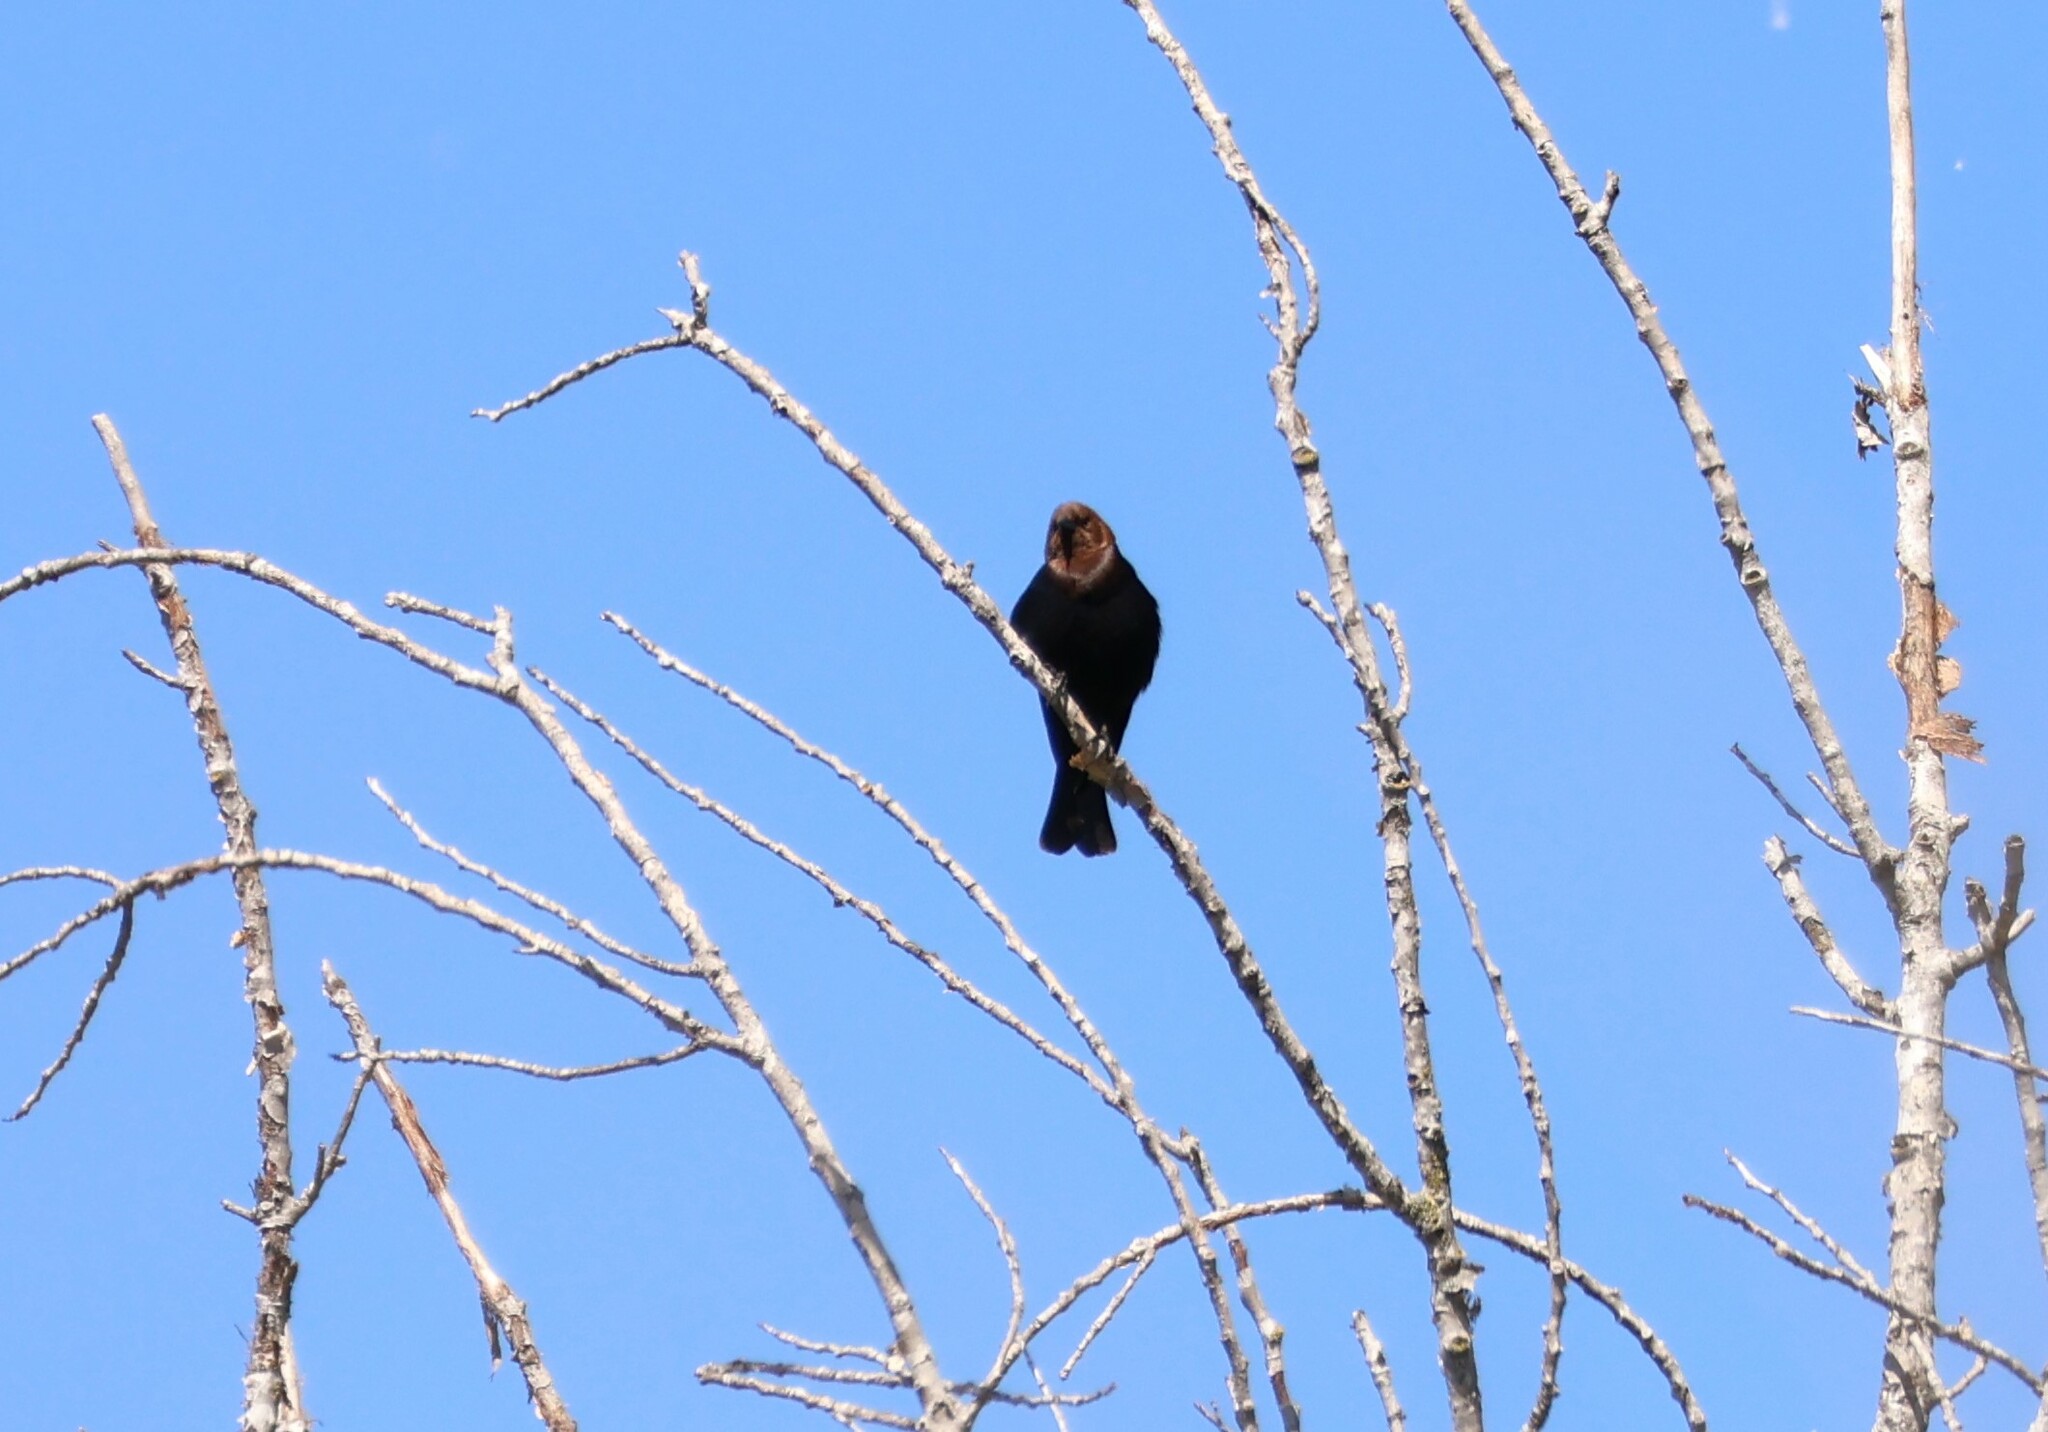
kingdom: Animalia
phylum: Chordata
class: Aves
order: Passeriformes
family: Icteridae
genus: Molothrus
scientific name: Molothrus ater
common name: Brown-headed cowbird
